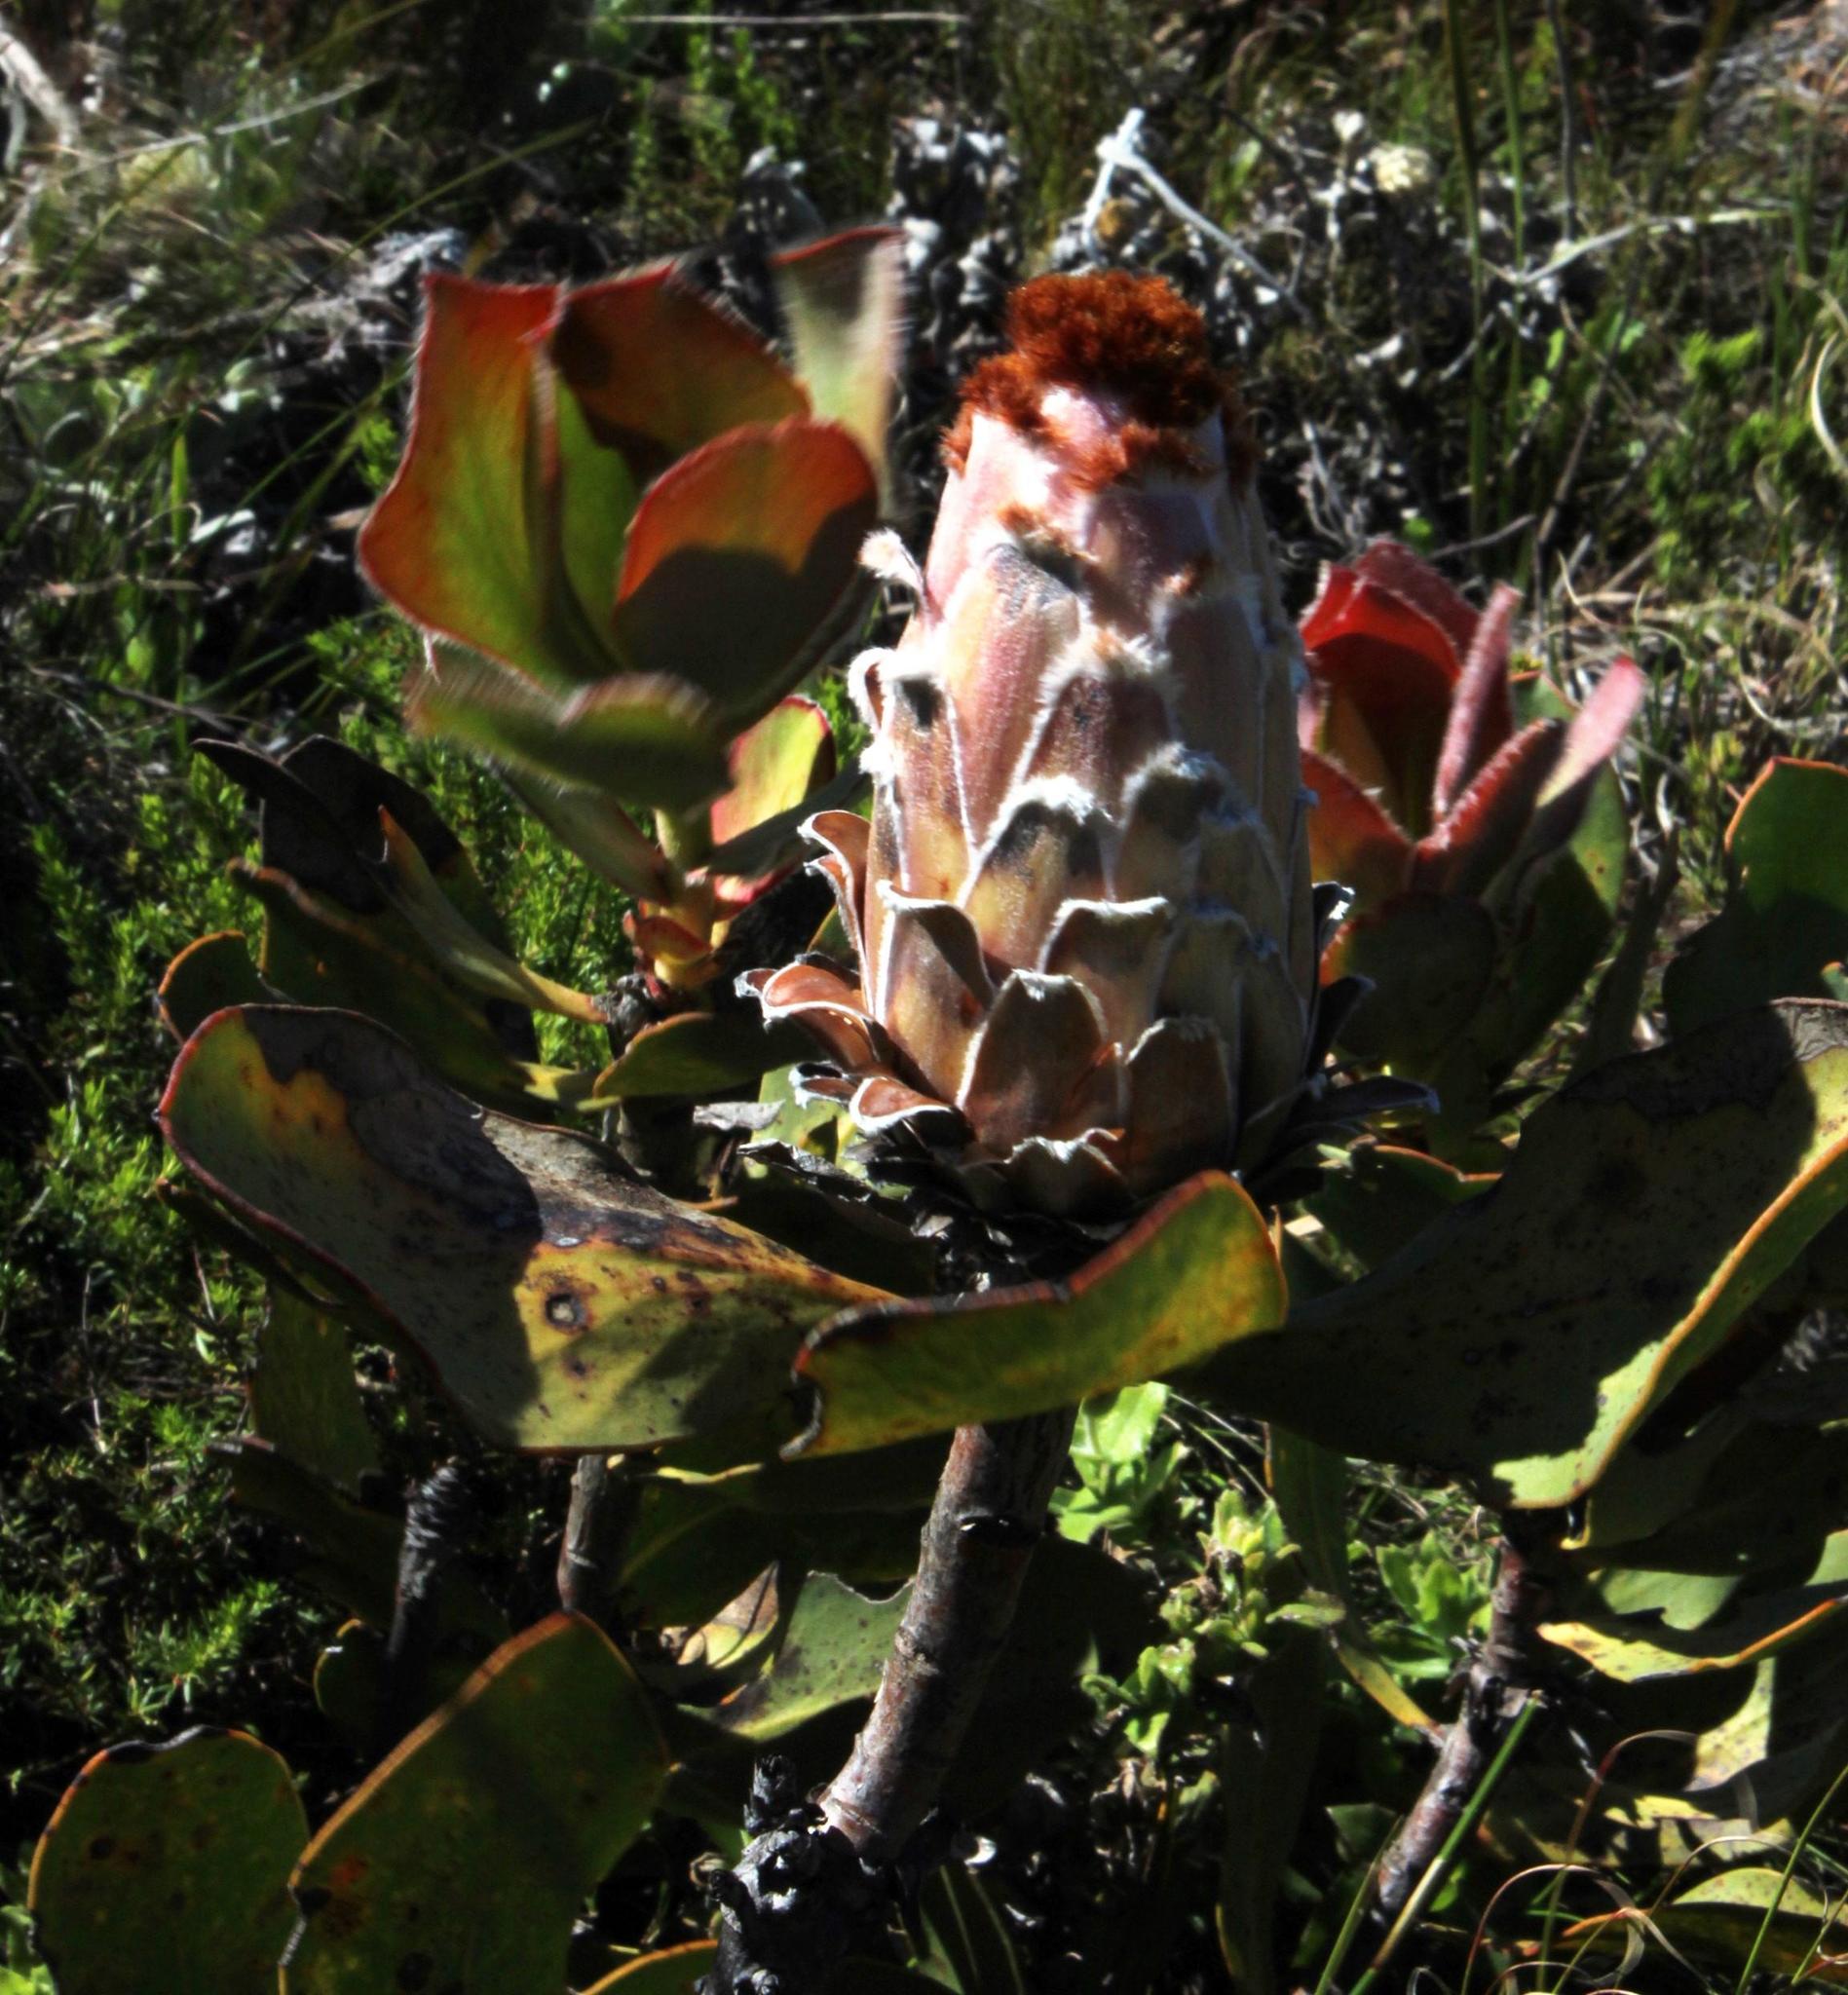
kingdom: Plantae
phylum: Tracheophyta
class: Magnoliopsida
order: Proteales
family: Proteaceae
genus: Protea
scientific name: Protea speciosa
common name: Brown-beard sugarbush
